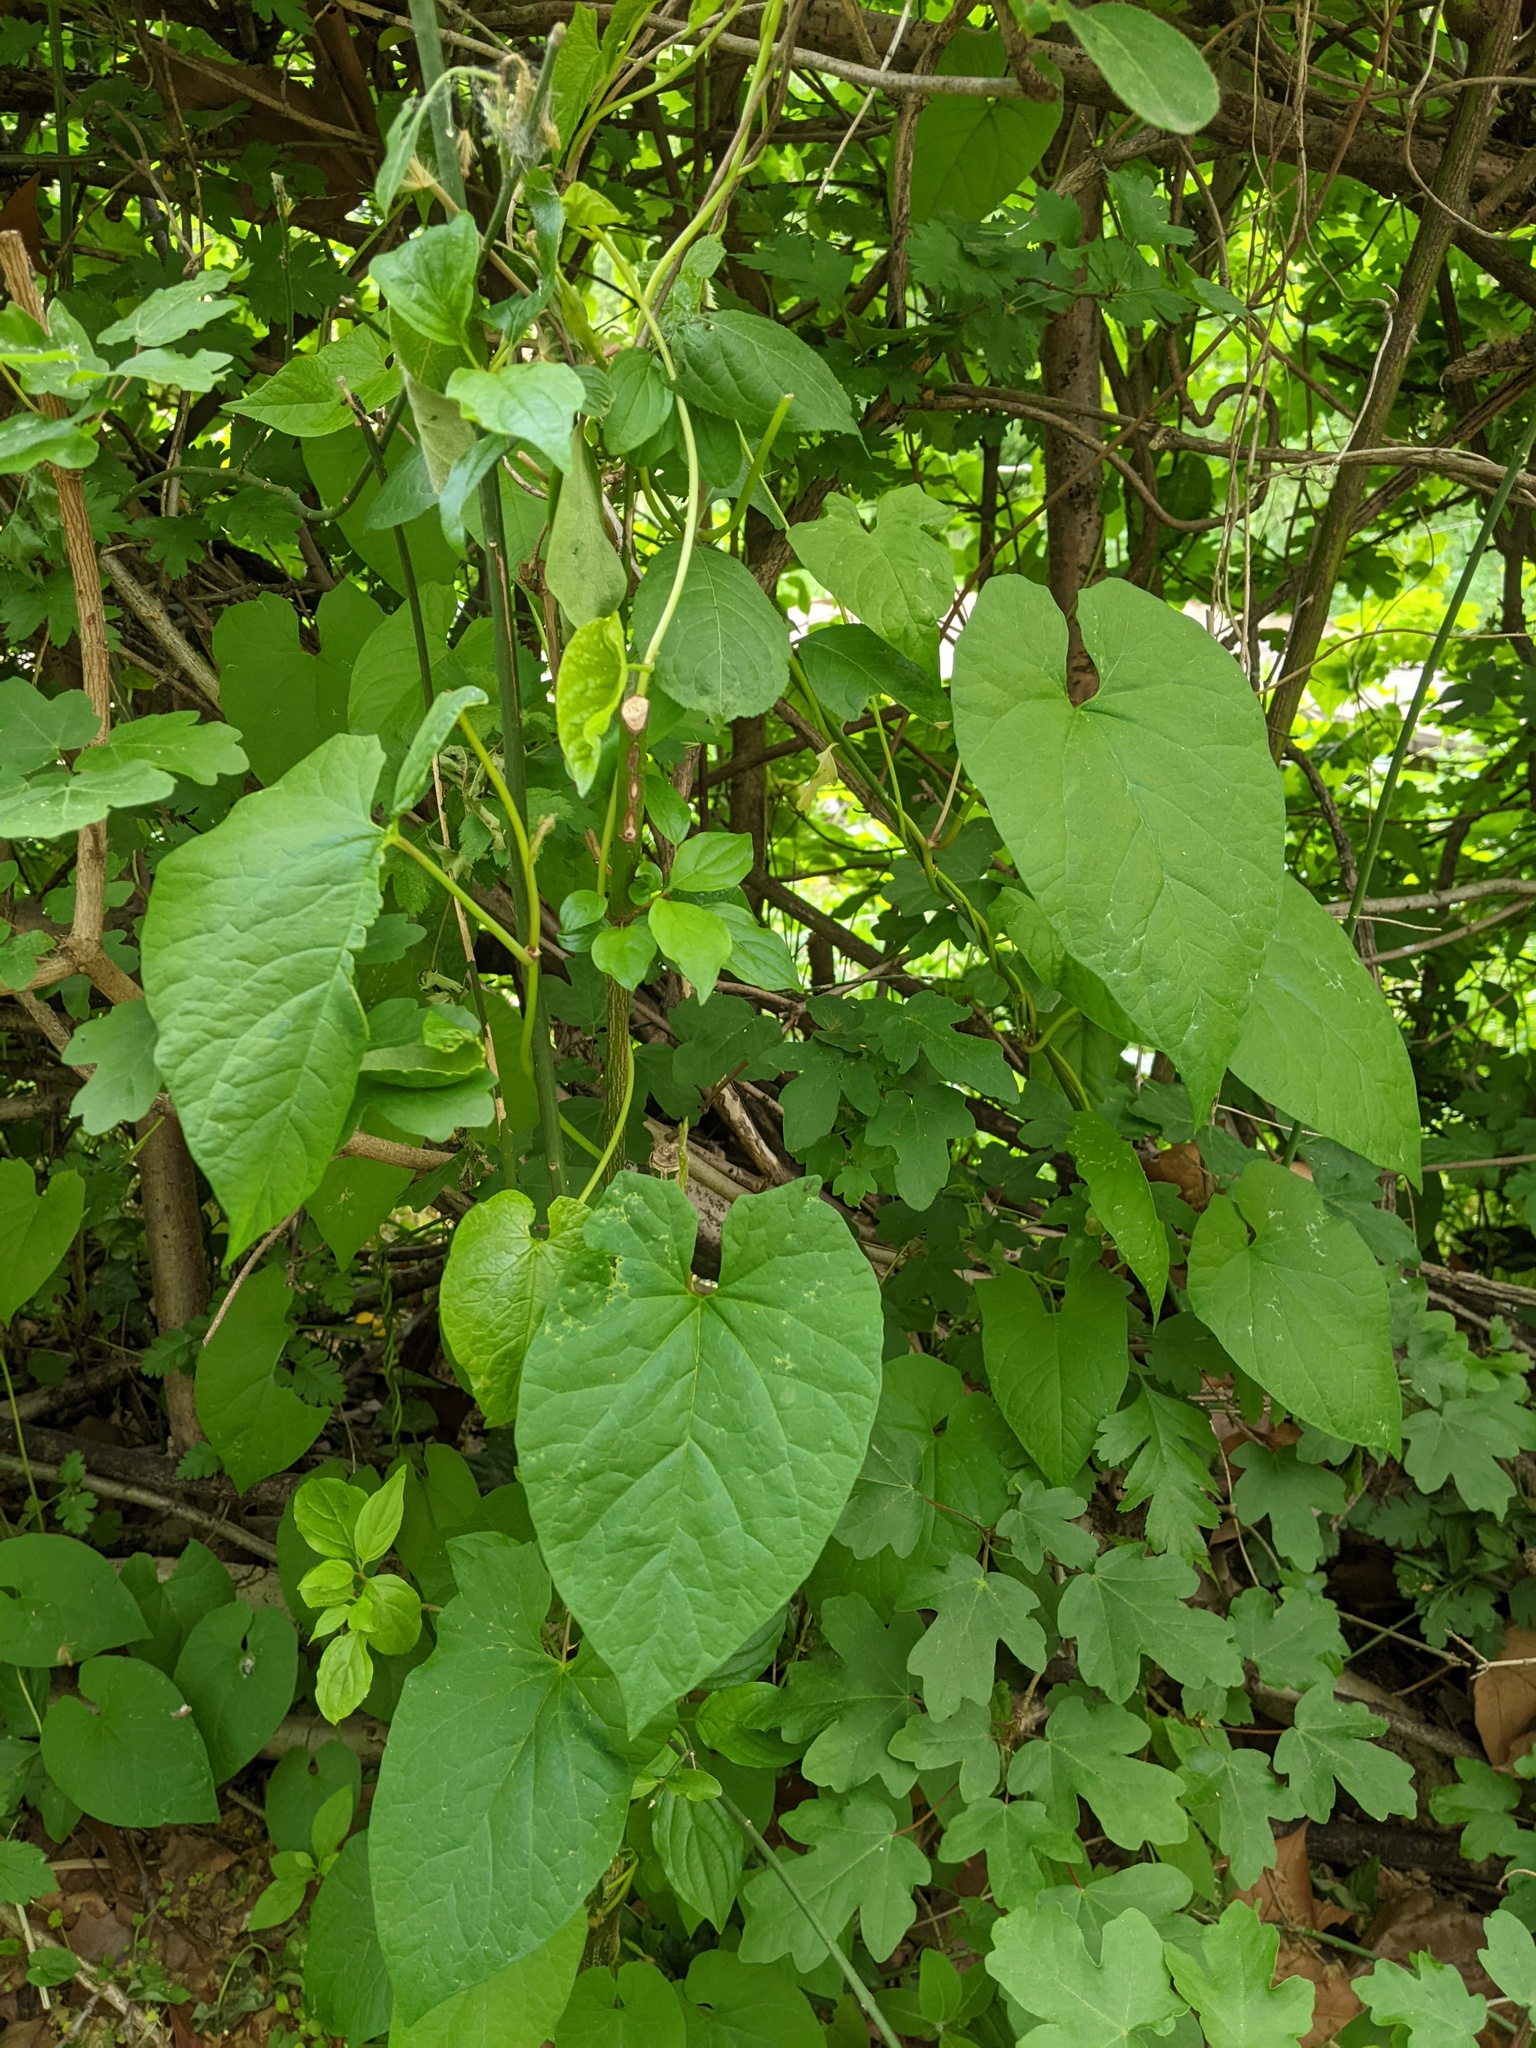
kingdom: Plantae
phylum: Tracheophyta
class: Magnoliopsida
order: Solanales
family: Convolvulaceae
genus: Calystegia
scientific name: Calystegia
